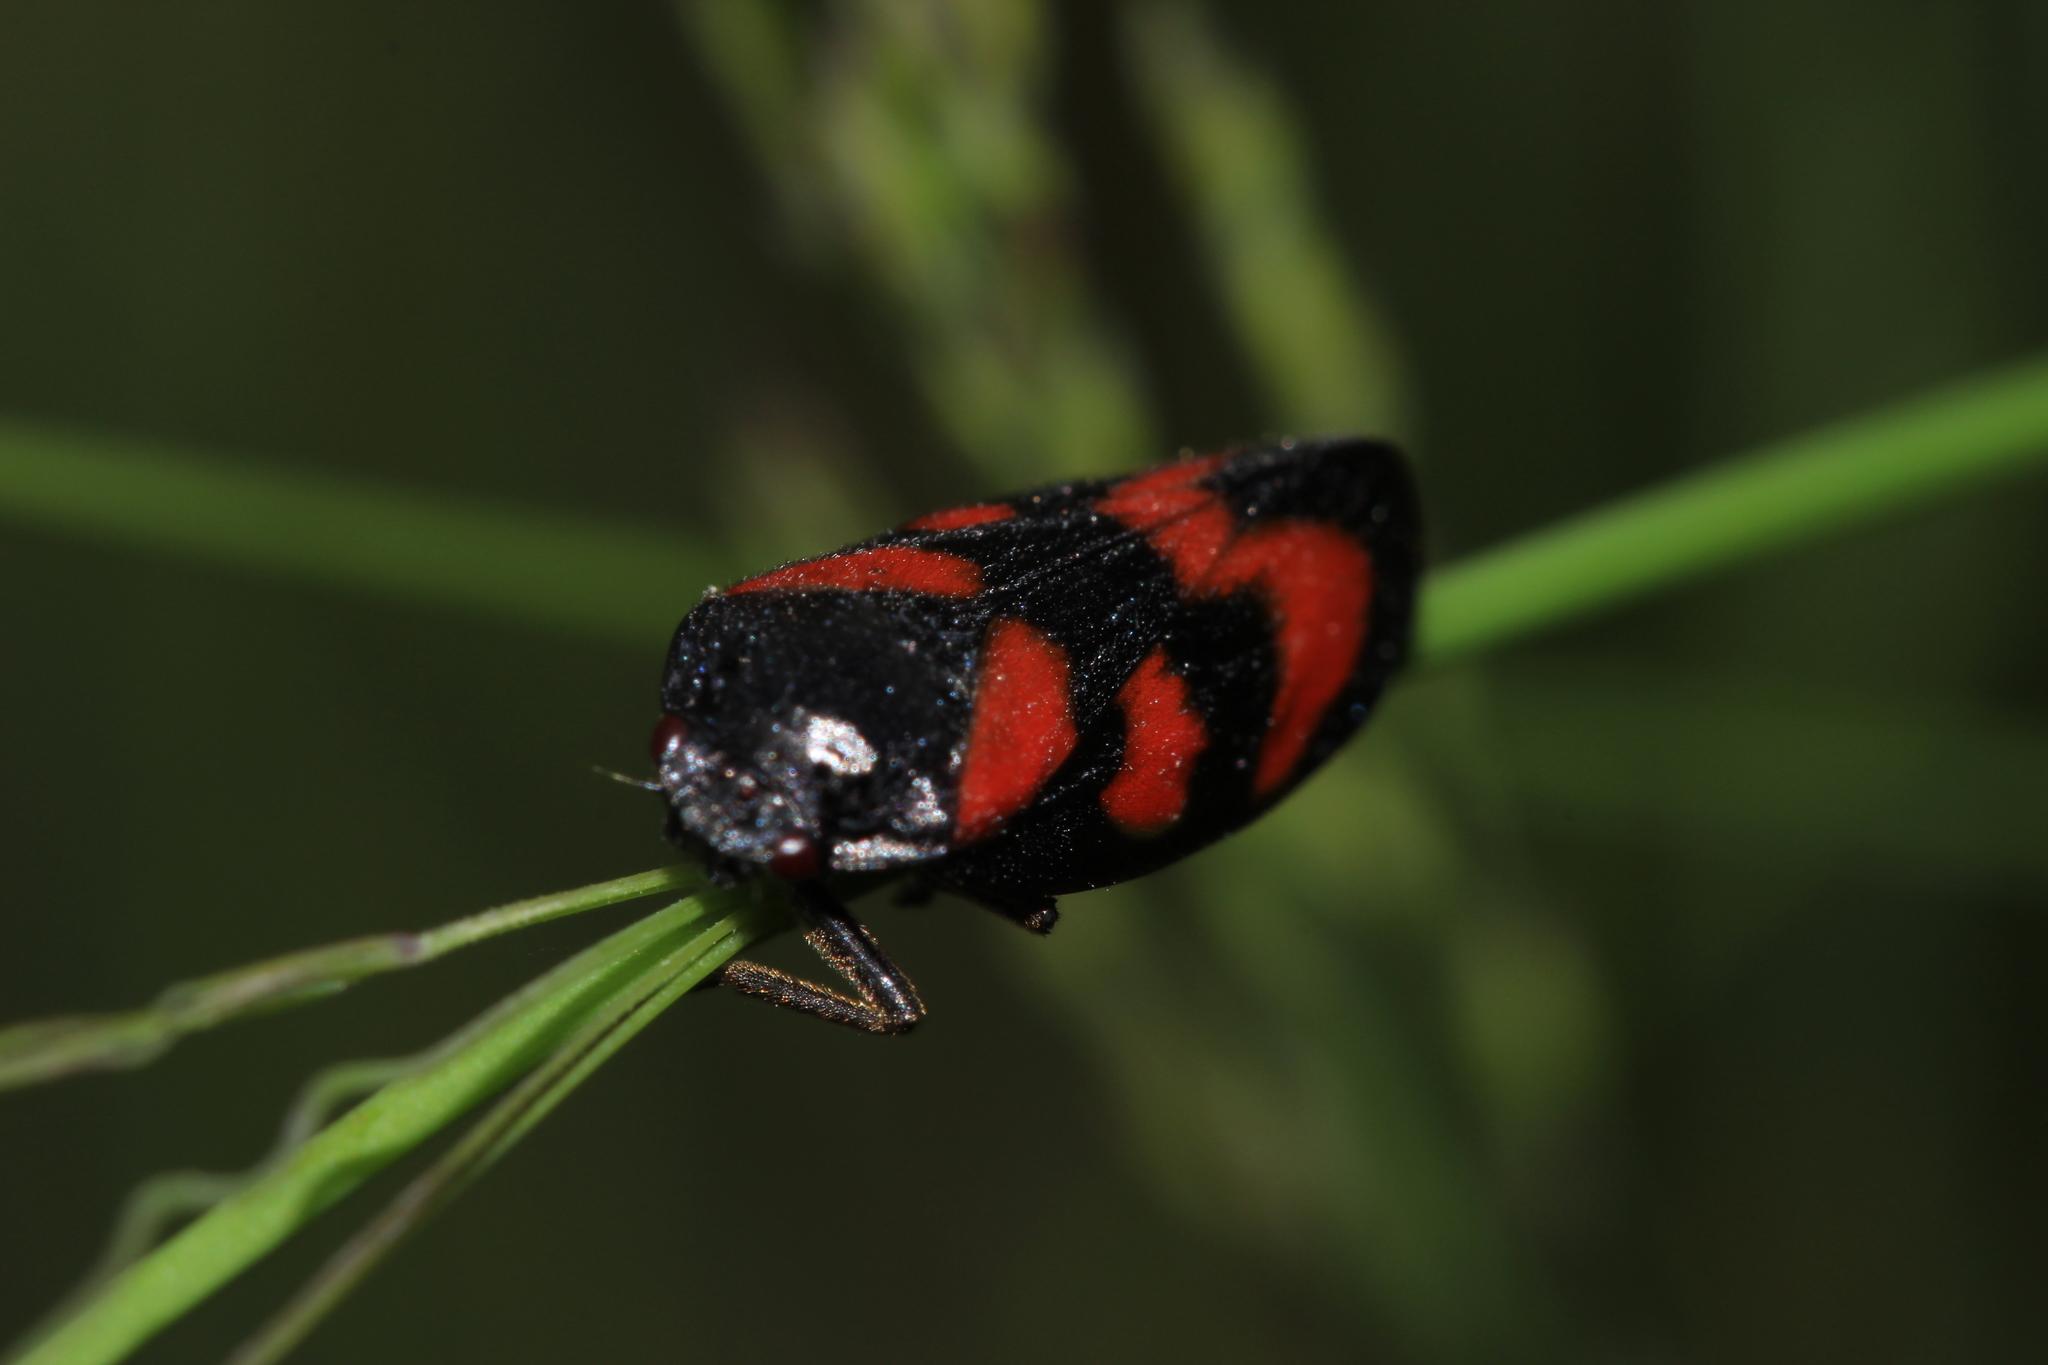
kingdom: Animalia
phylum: Arthropoda
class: Insecta
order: Hemiptera
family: Cercopidae
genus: Cercopis
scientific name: Cercopis vulnerata
